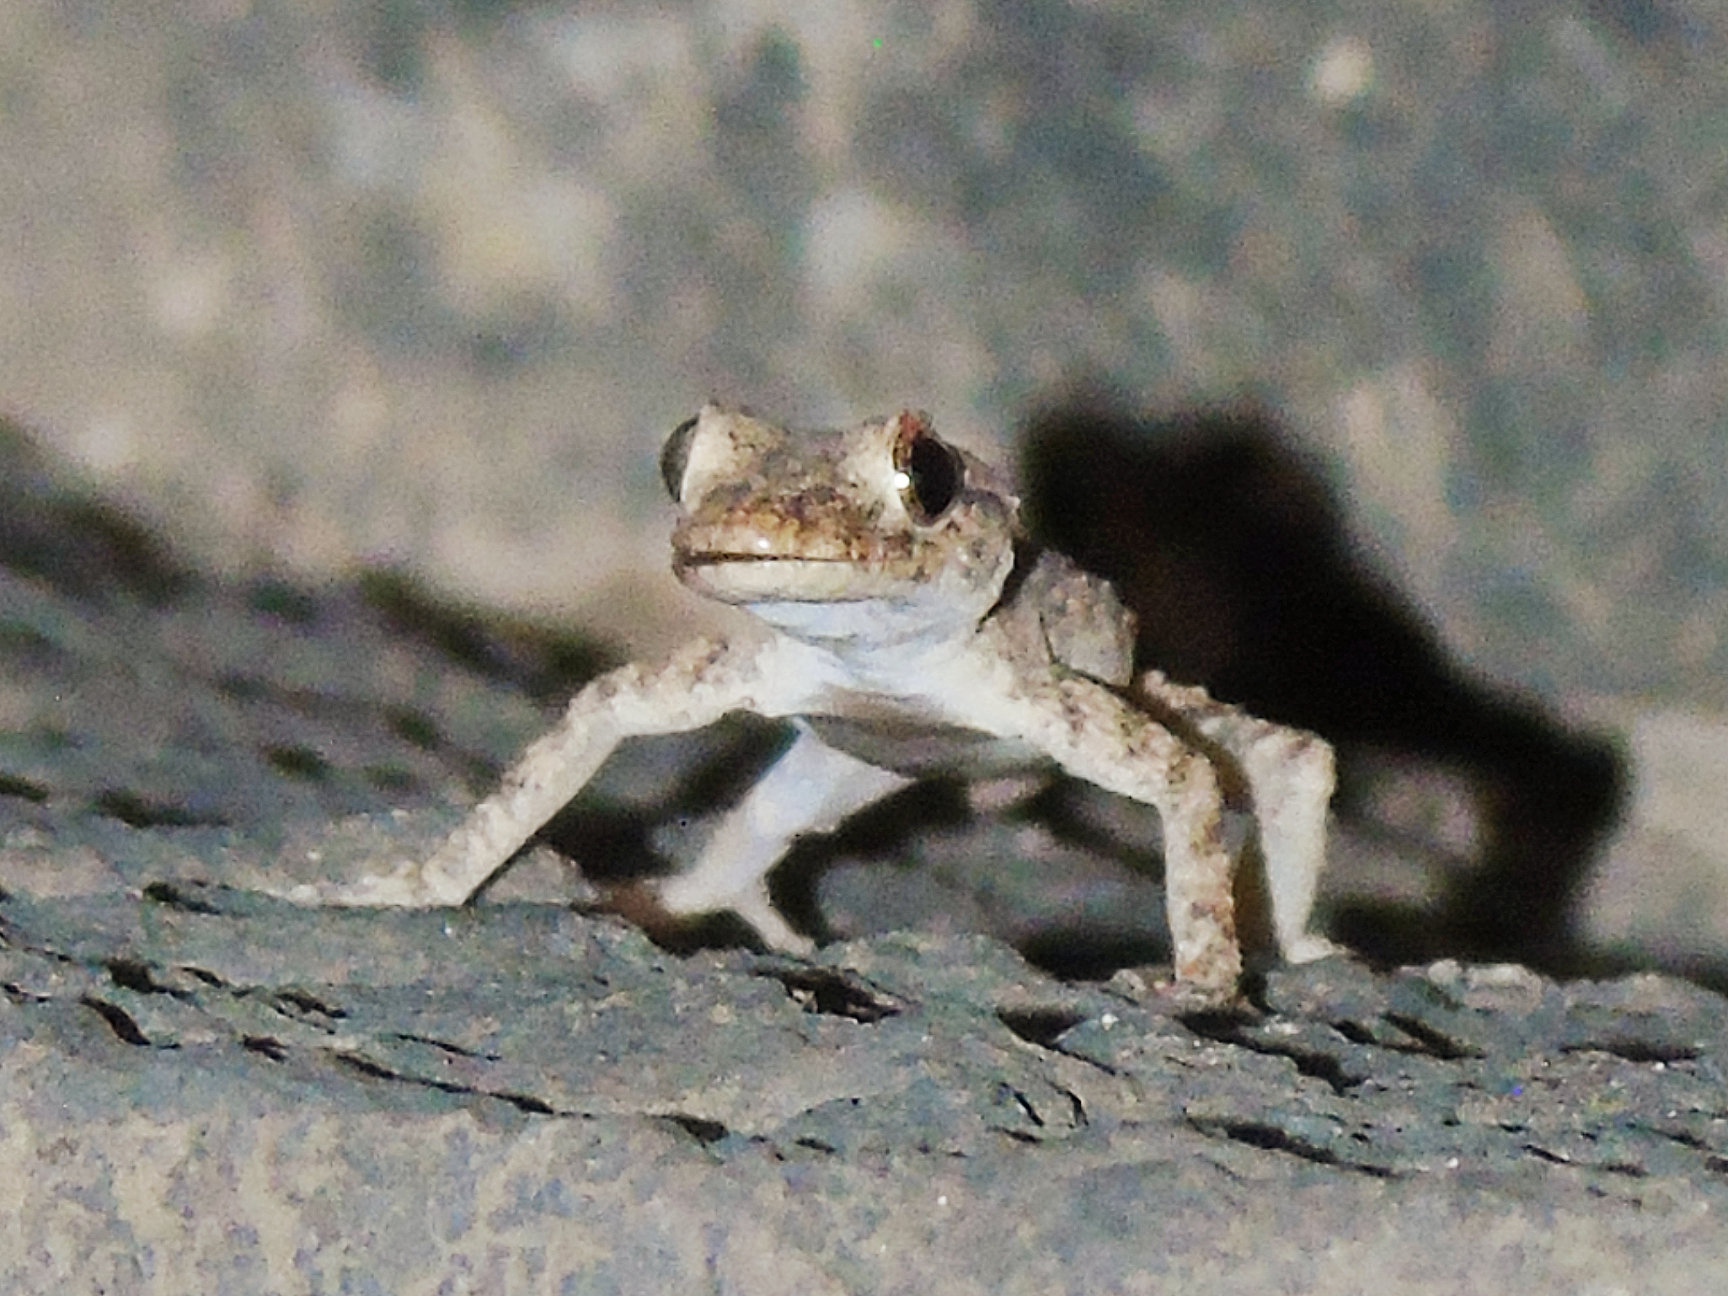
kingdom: Animalia
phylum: Chordata
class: Squamata
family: Gekkonidae
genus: Mediodactylus
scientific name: Mediodactylus heterocercus
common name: Asia minor thin-toed gecko
